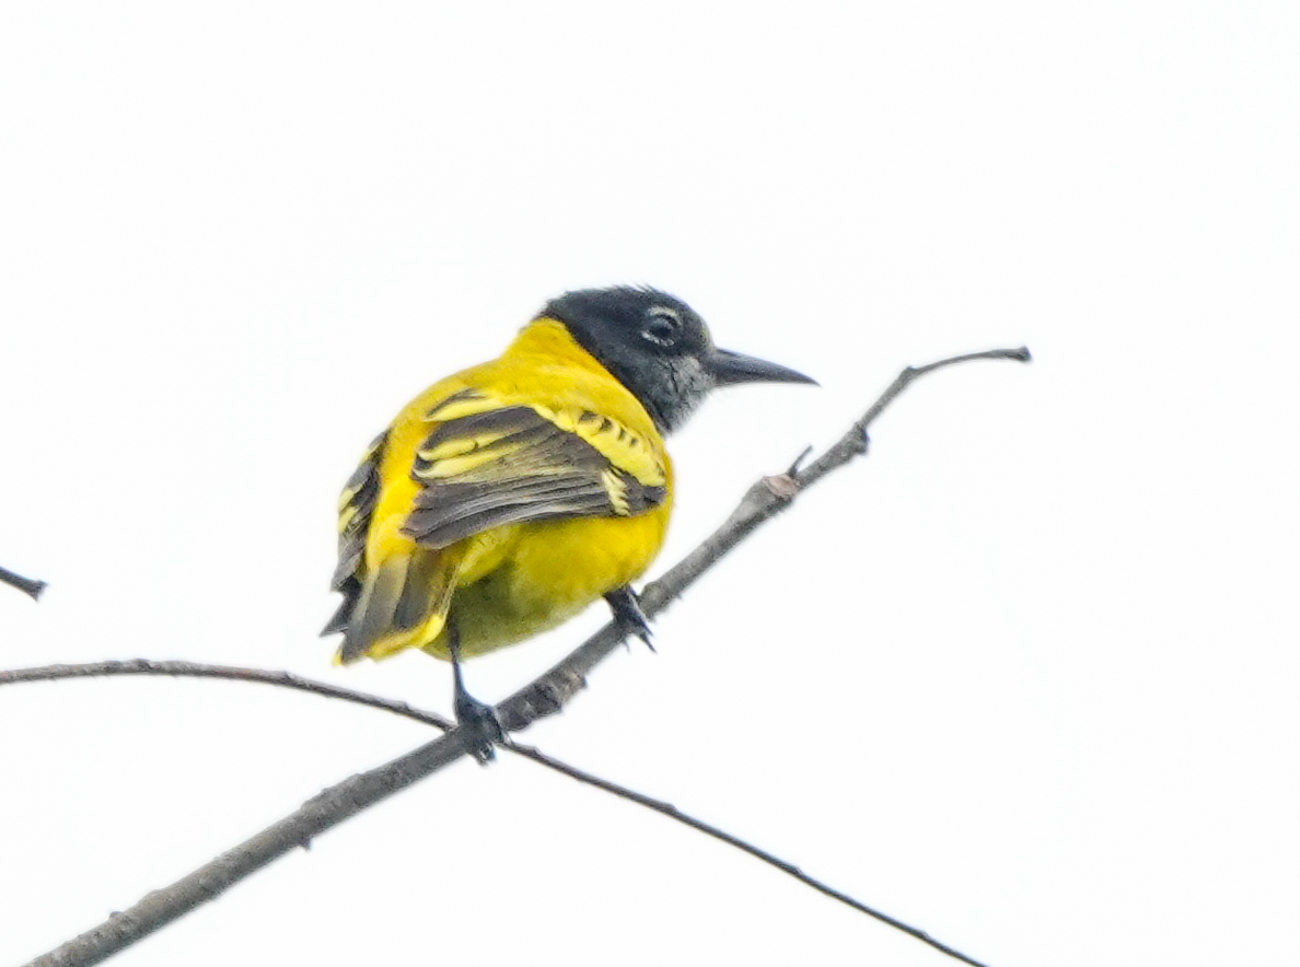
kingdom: Animalia
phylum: Chordata
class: Aves
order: Passeriformes
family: Oriolidae
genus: Oriolus
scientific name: Oriolus xanthornus
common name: Black-hooded oriole
